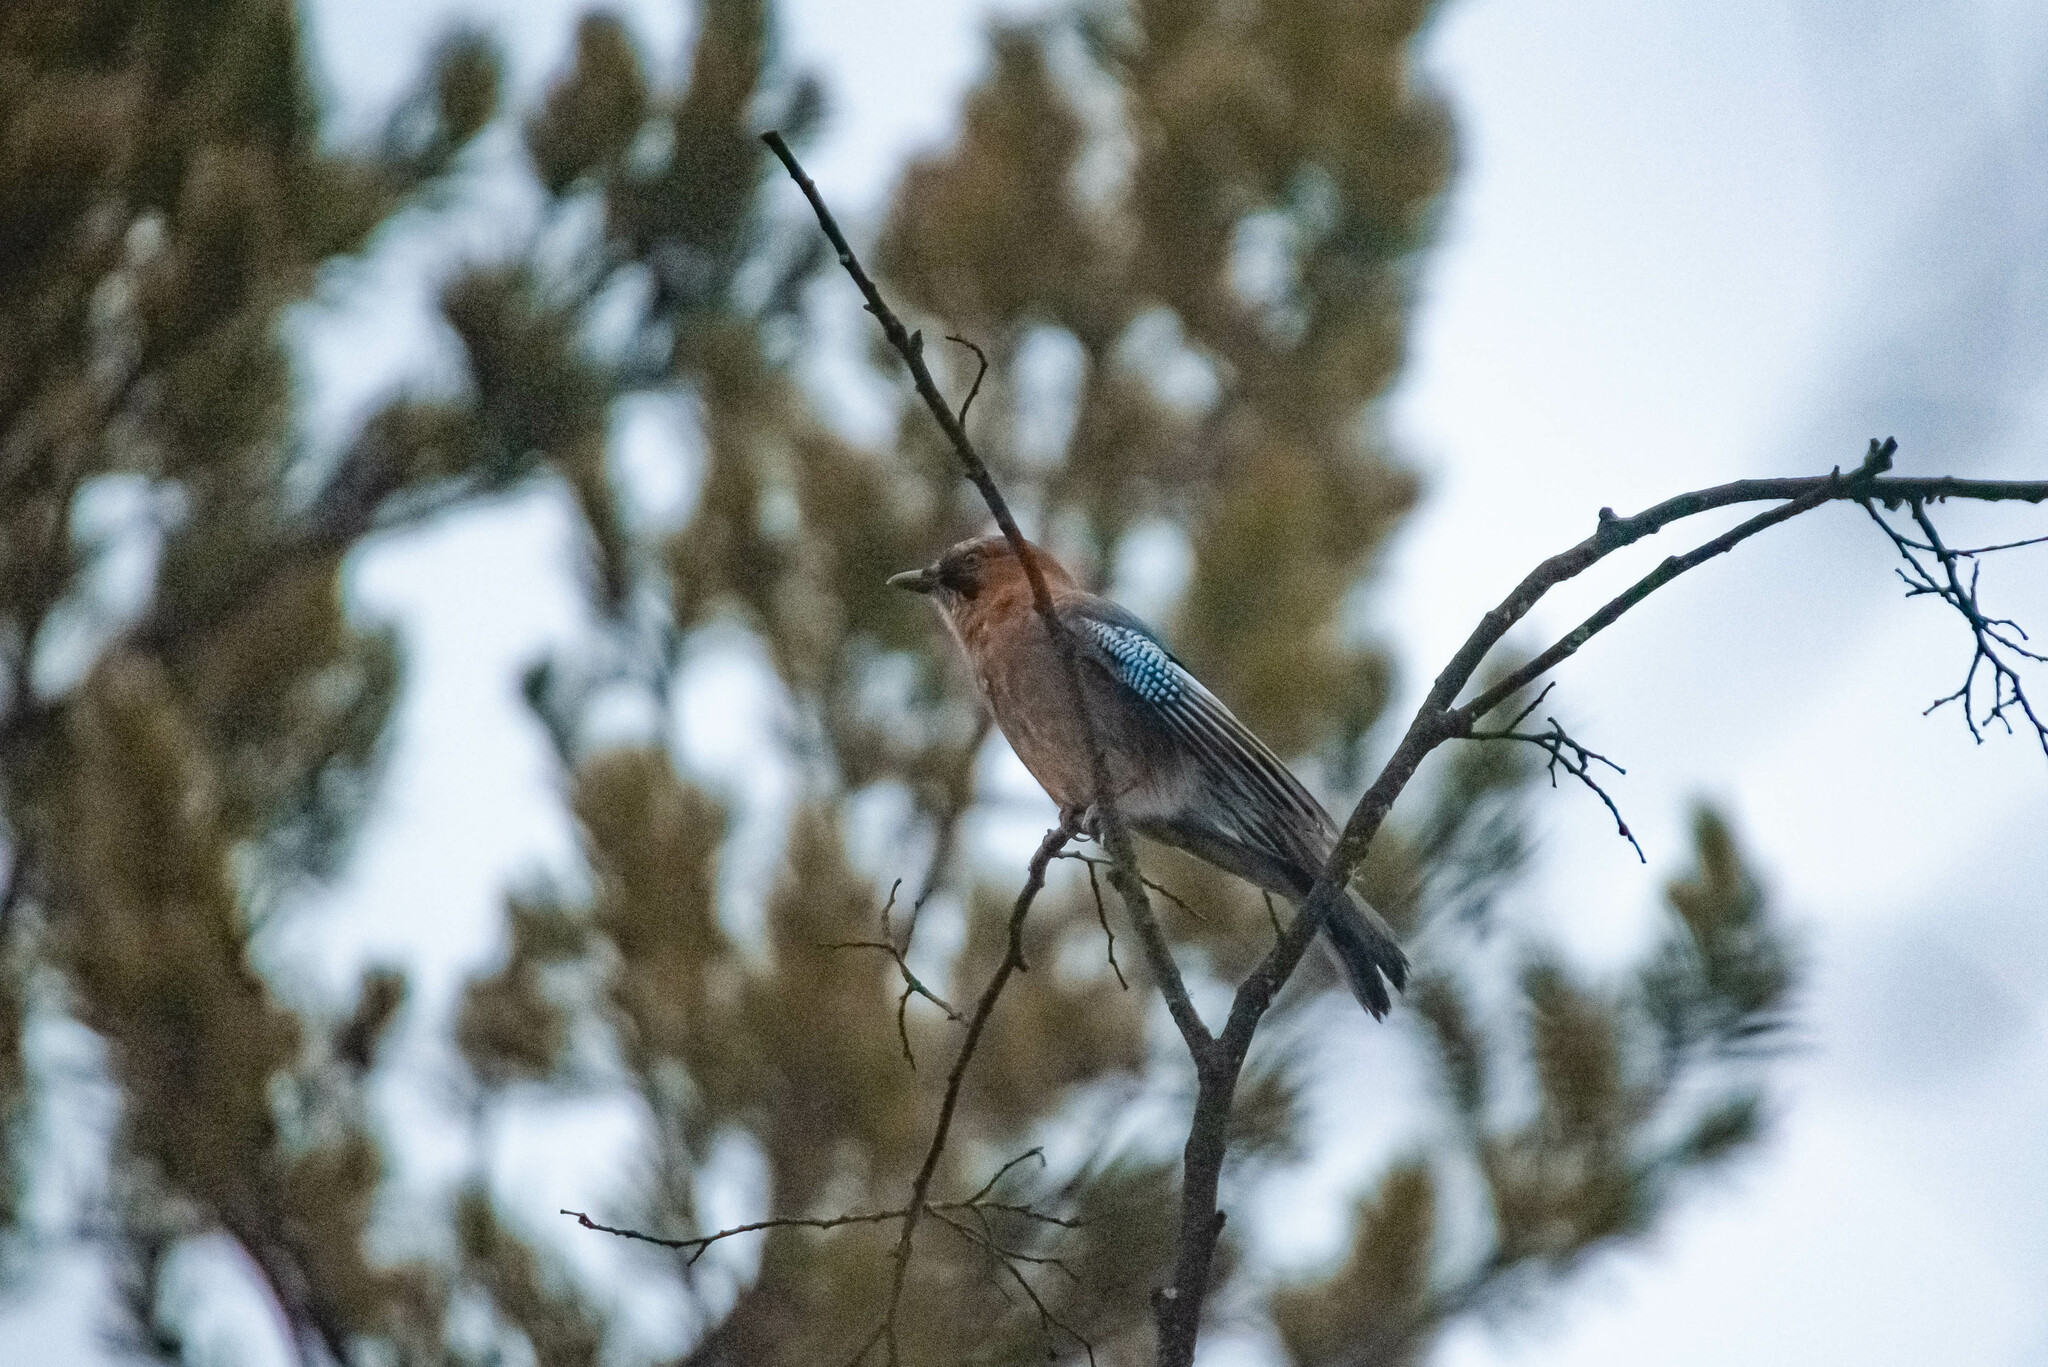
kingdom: Animalia
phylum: Chordata
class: Aves
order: Passeriformes
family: Corvidae
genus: Garrulus
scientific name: Garrulus glandarius
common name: Eurasian jay
